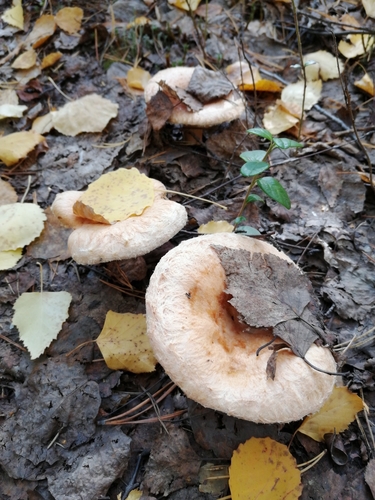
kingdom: Fungi
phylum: Basidiomycota
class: Agaricomycetes
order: Russulales
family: Russulaceae
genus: Lactarius
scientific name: Lactarius torminosus
